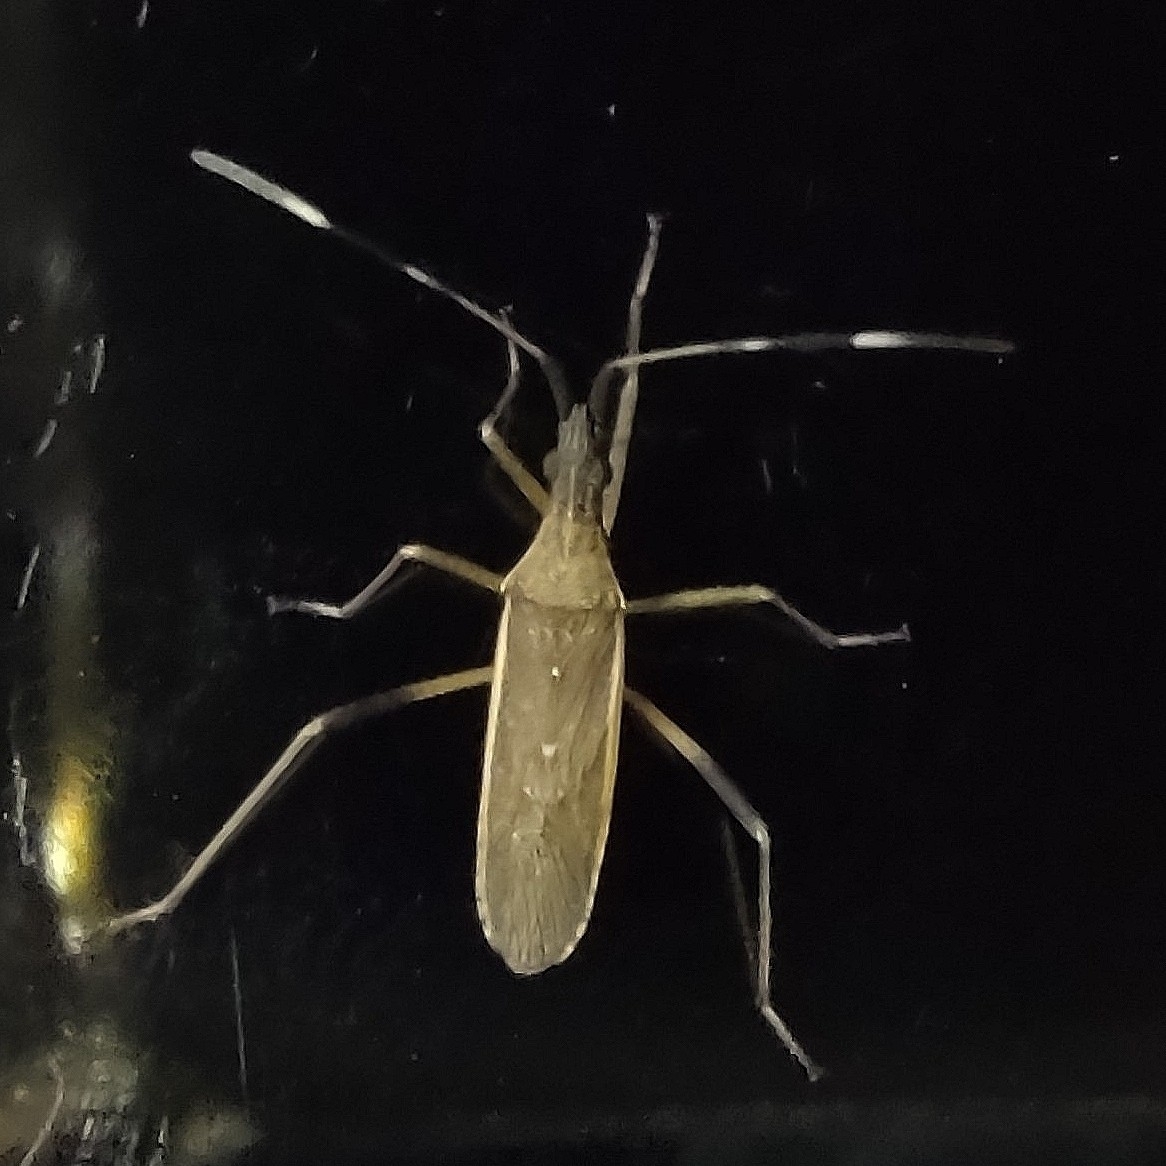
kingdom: Animalia
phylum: Arthropoda
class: Insecta
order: Hemiptera
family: Stenocephalidae
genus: Dicranocephalus
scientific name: Dicranocephalus lateralis
